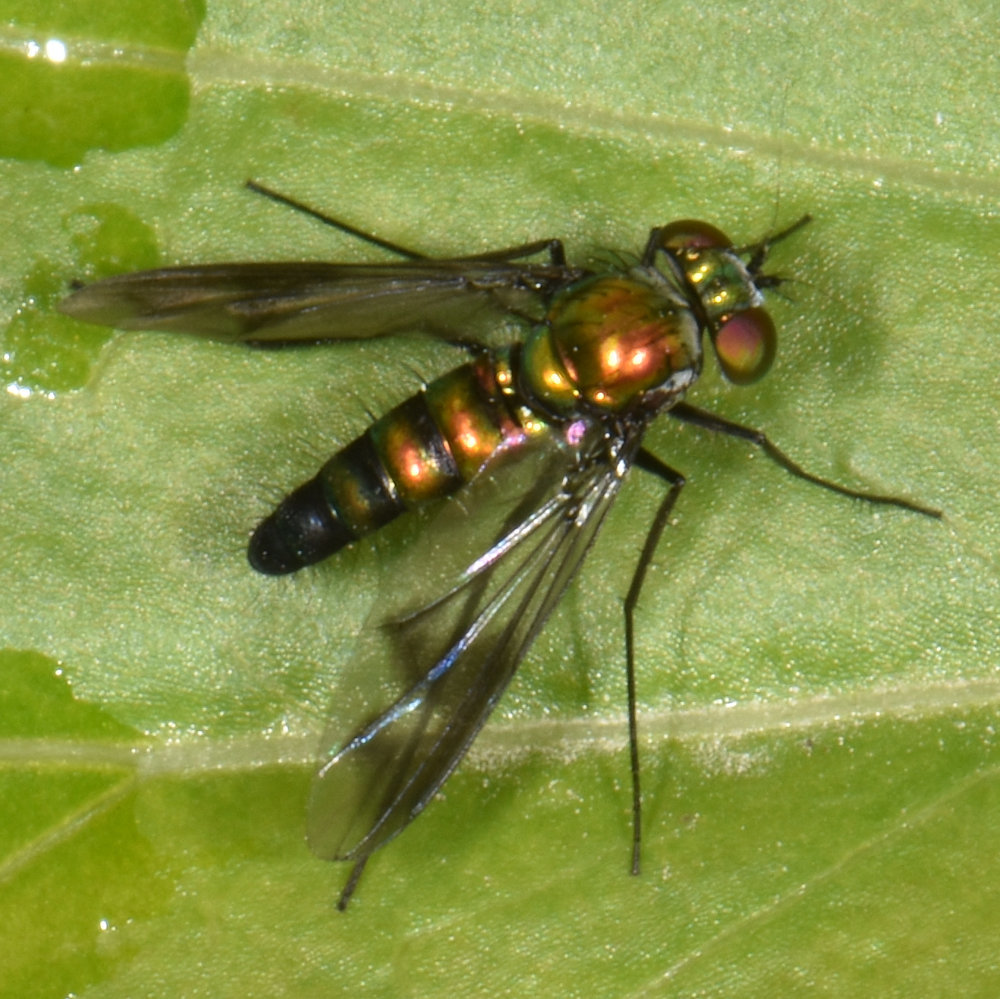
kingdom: Animalia
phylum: Arthropoda
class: Insecta
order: Diptera
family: Dolichopodidae
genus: Condylostylus
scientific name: Condylostylus patibulatus
